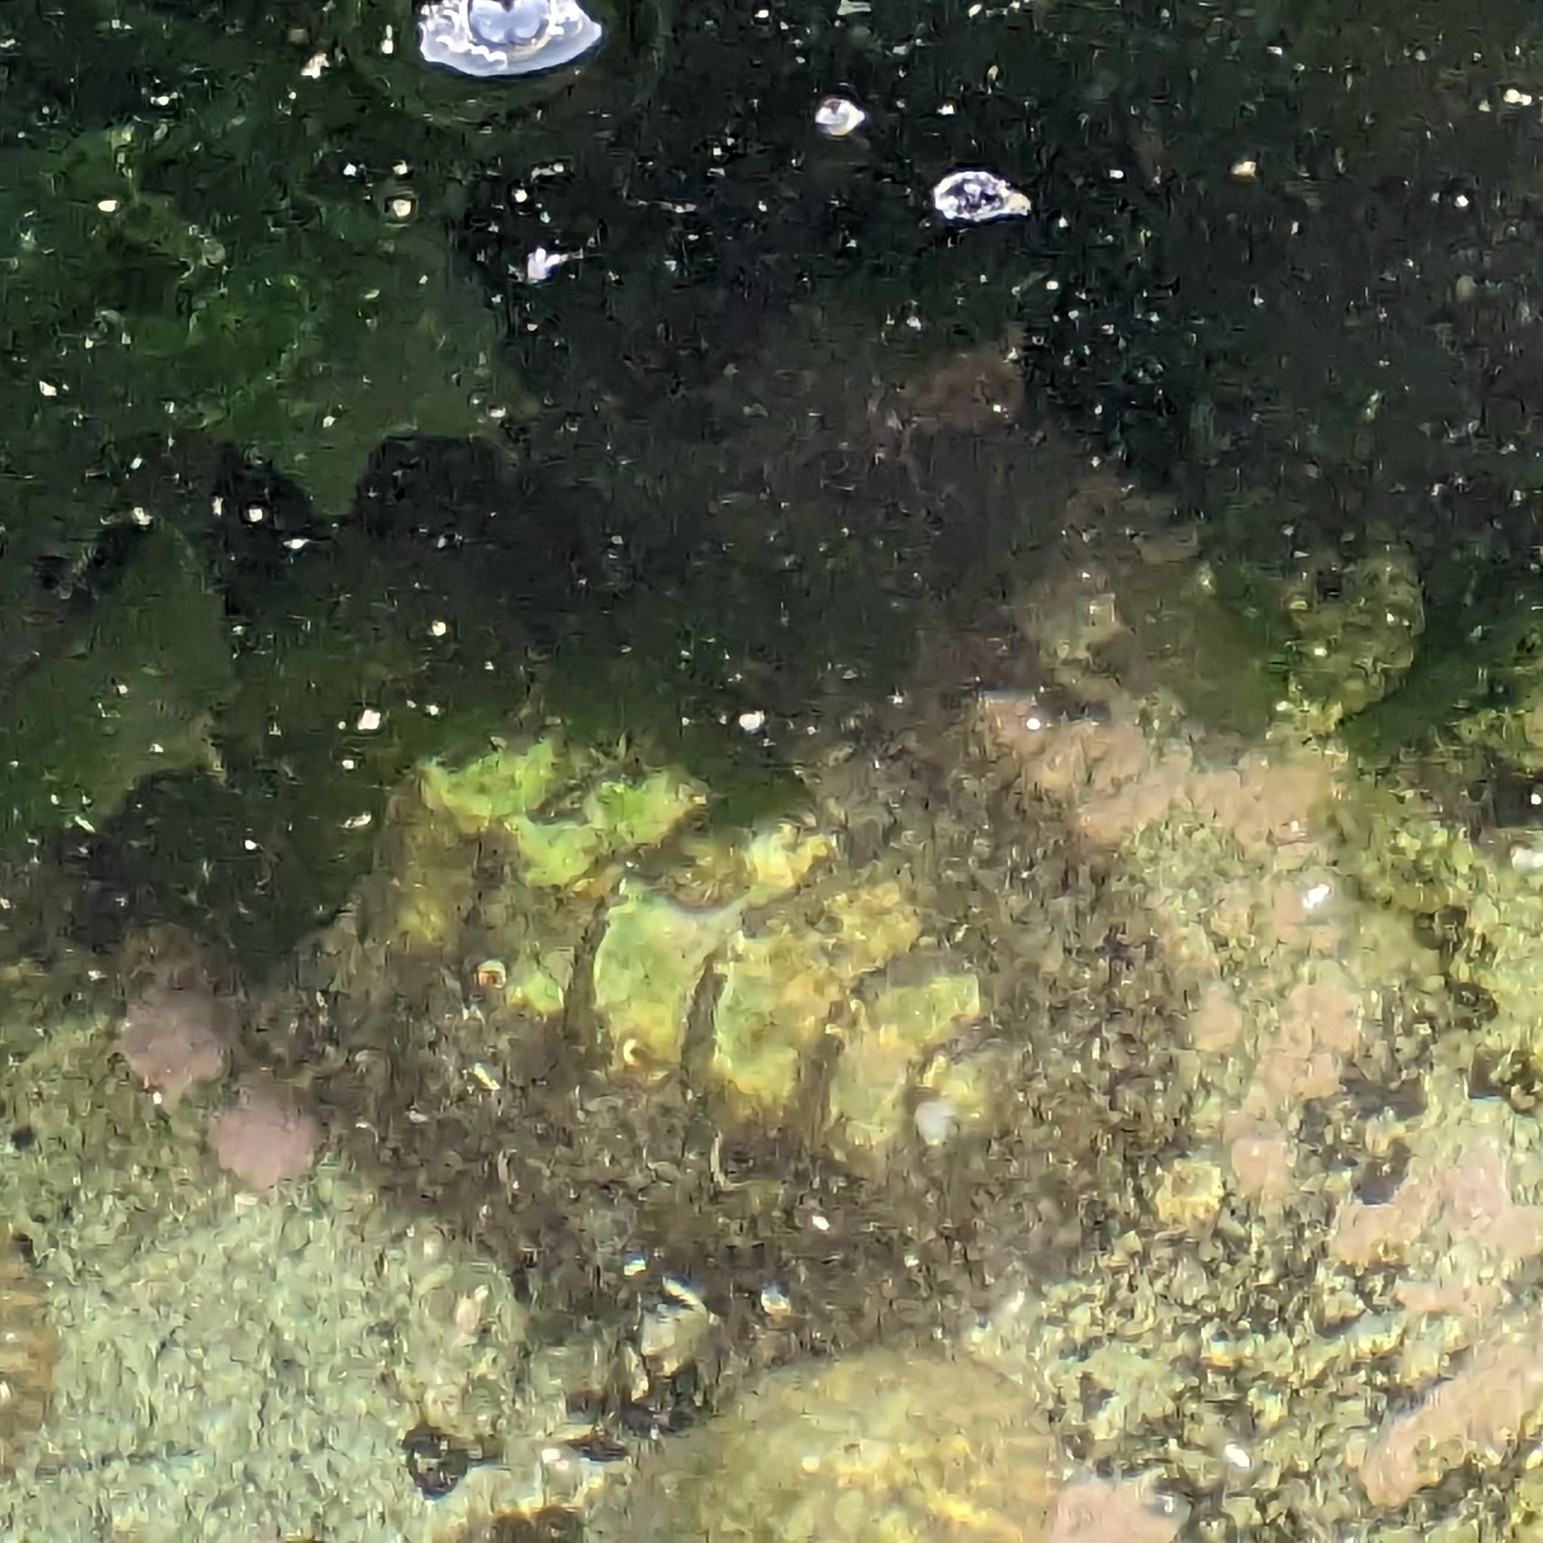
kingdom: Animalia
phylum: Mollusca
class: Polyplacophora
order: Chitonida
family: Mopaliidae
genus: Mopalia
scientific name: Mopalia muscosa
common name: Mossy chiton
